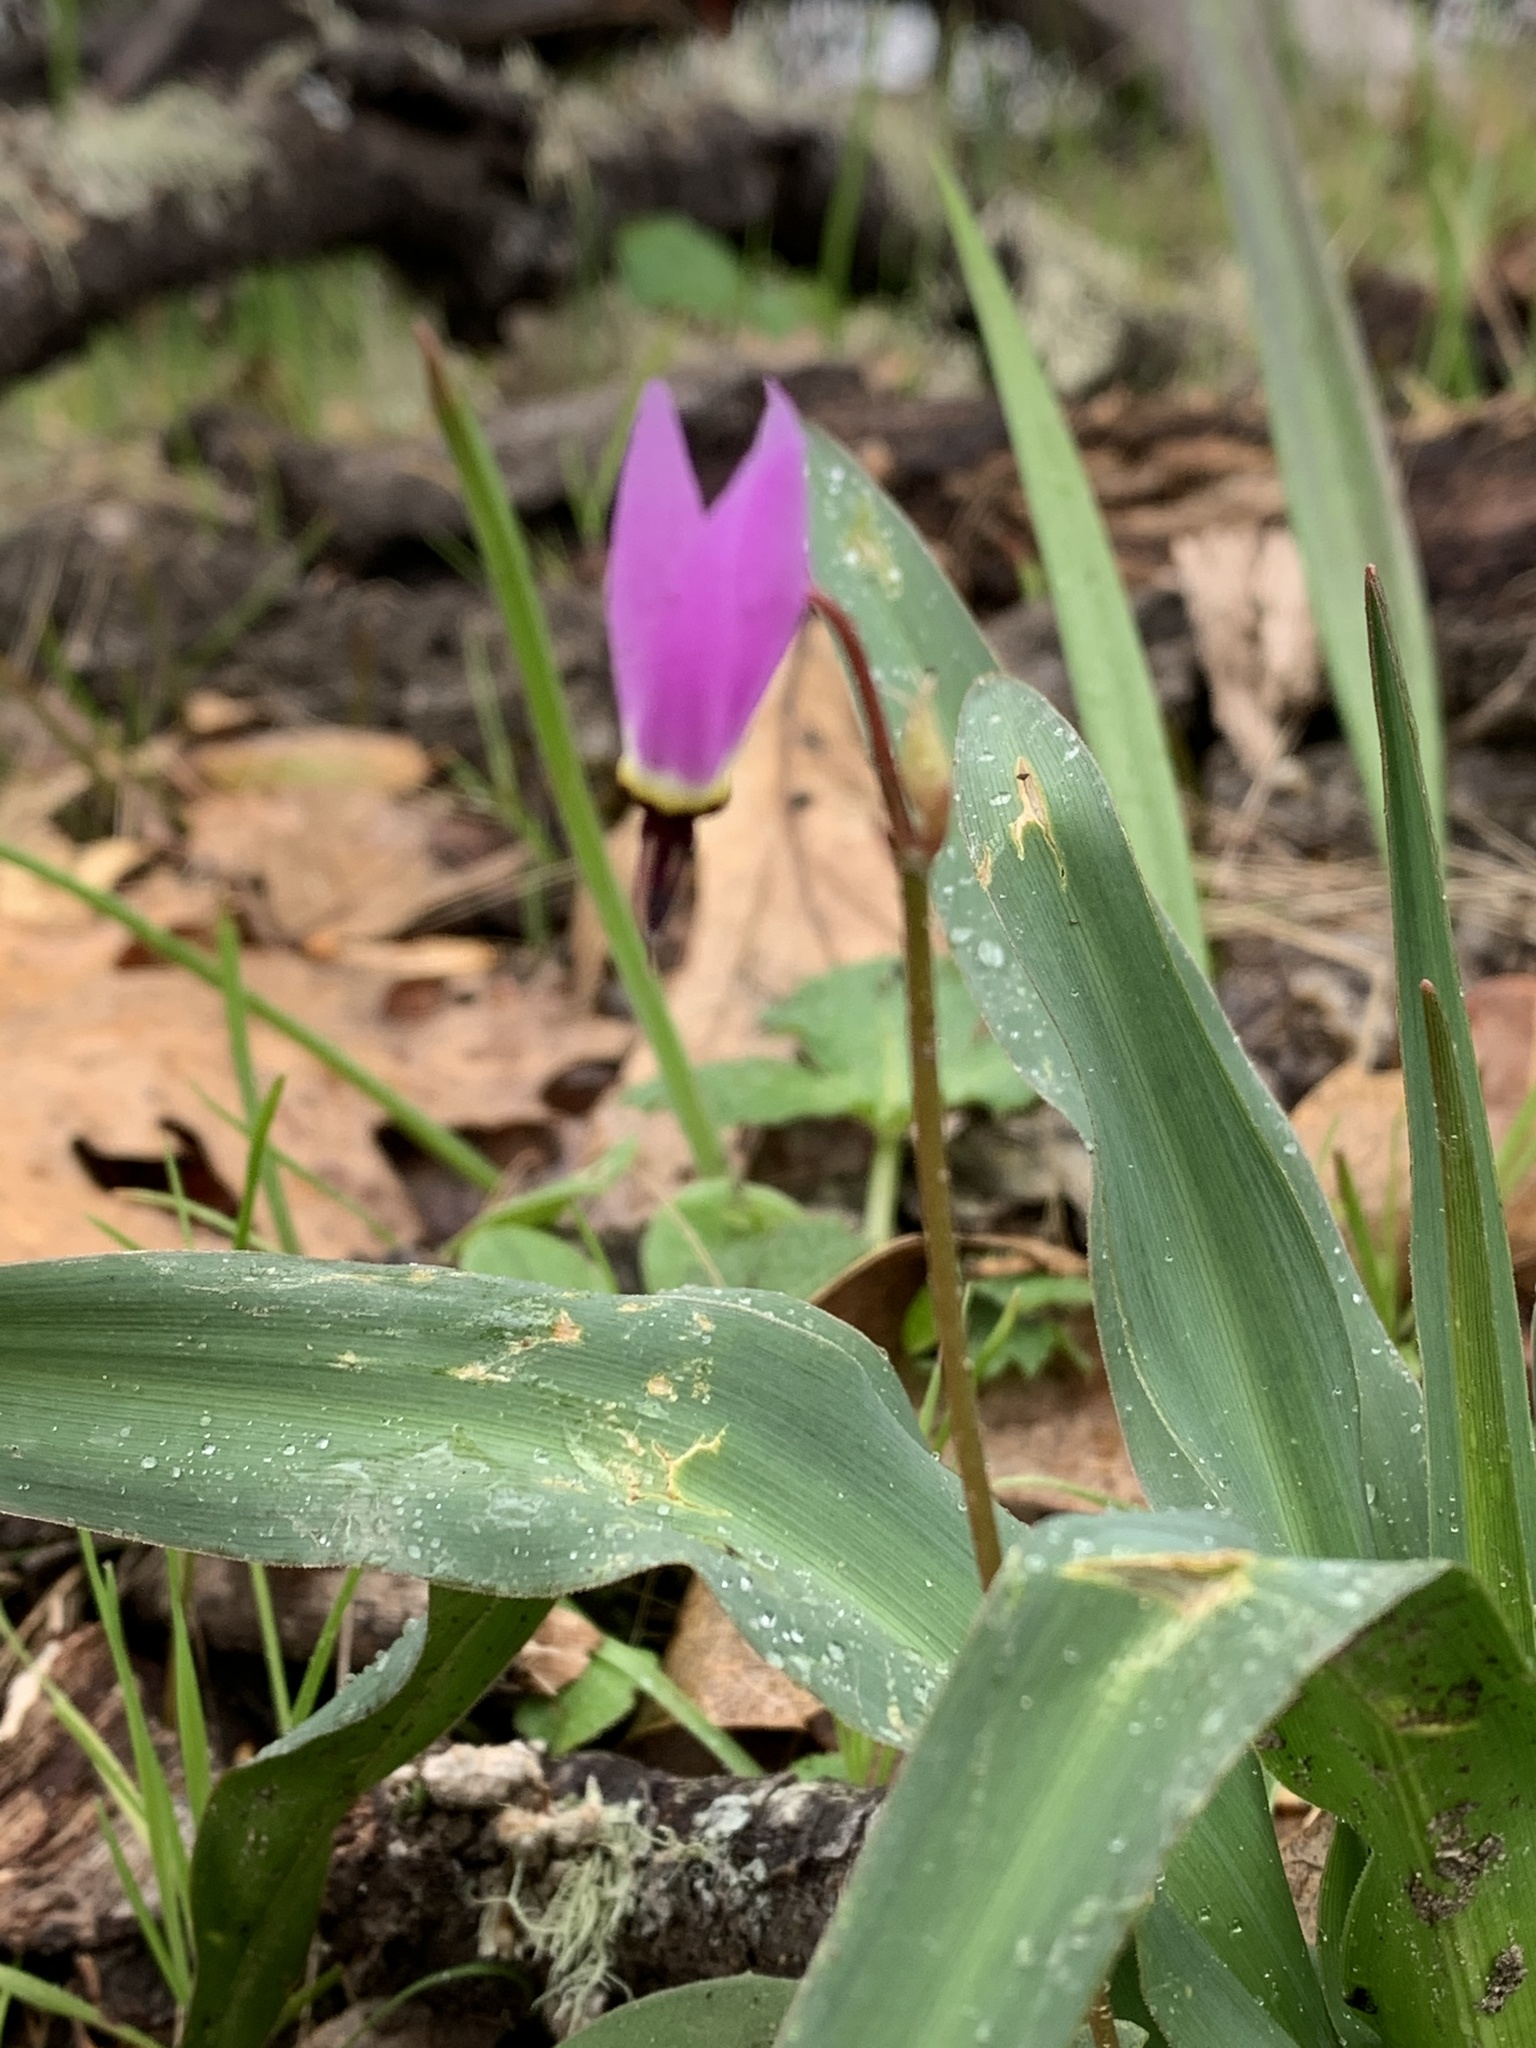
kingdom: Plantae
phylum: Tracheophyta
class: Magnoliopsida
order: Ericales
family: Primulaceae
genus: Dodecatheon
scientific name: Dodecatheon hendersonii
